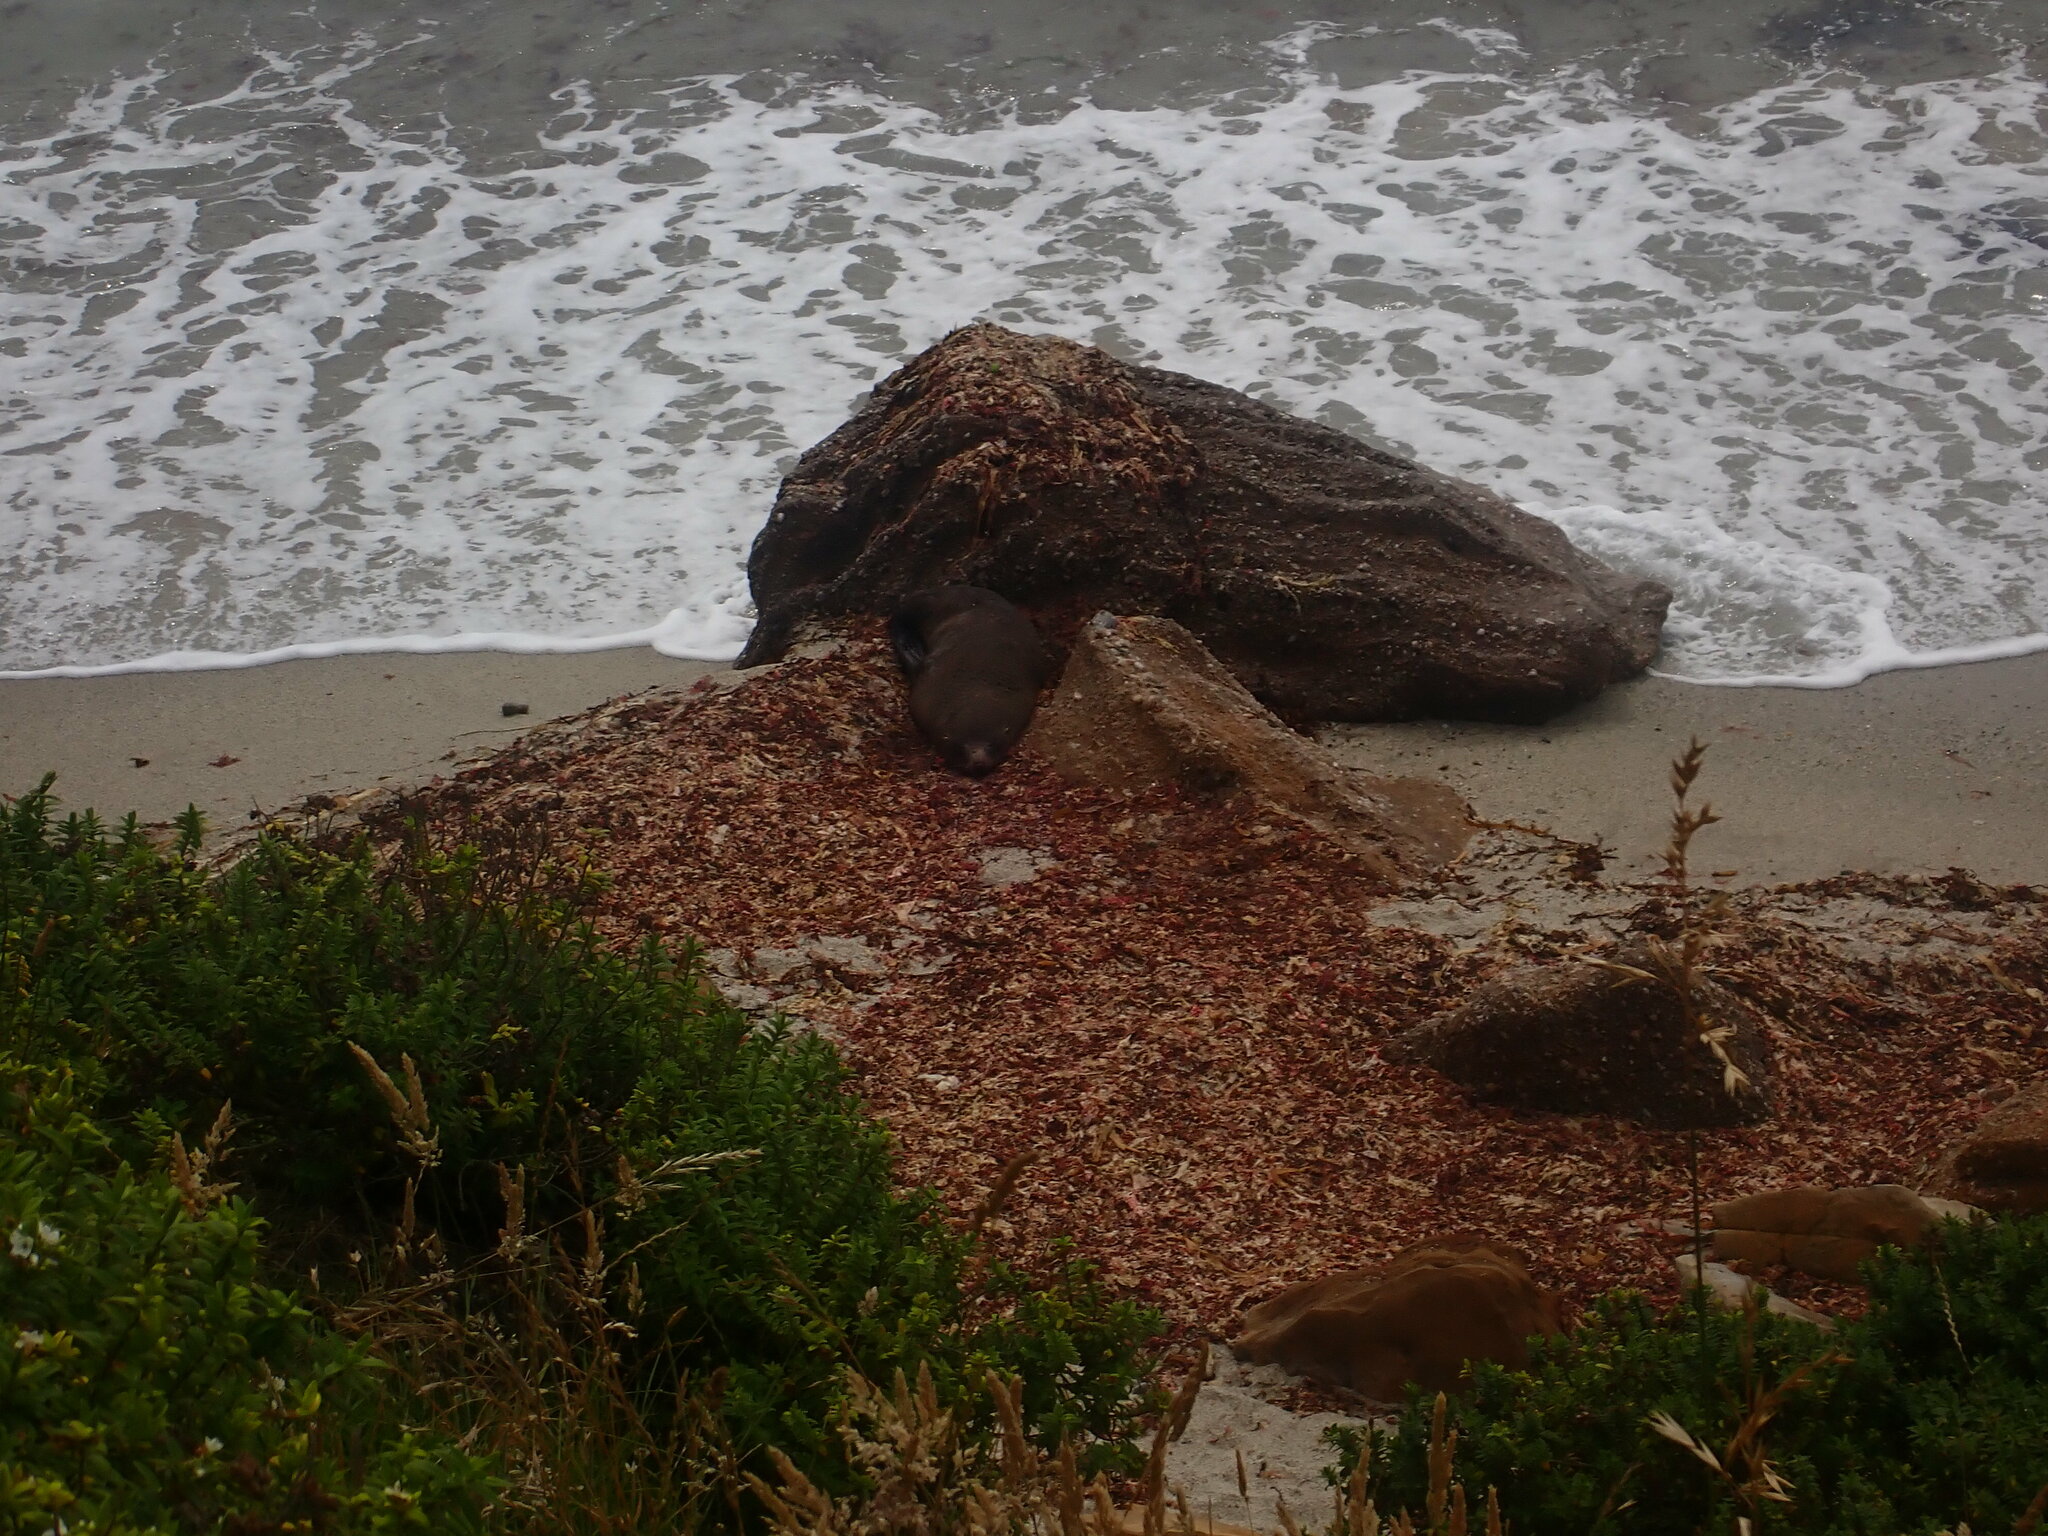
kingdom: Animalia
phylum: Chordata
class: Mammalia
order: Carnivora
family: Otariidae
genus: Arctocephalus
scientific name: Arctocephalus forsteri
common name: New zealand fur seal
